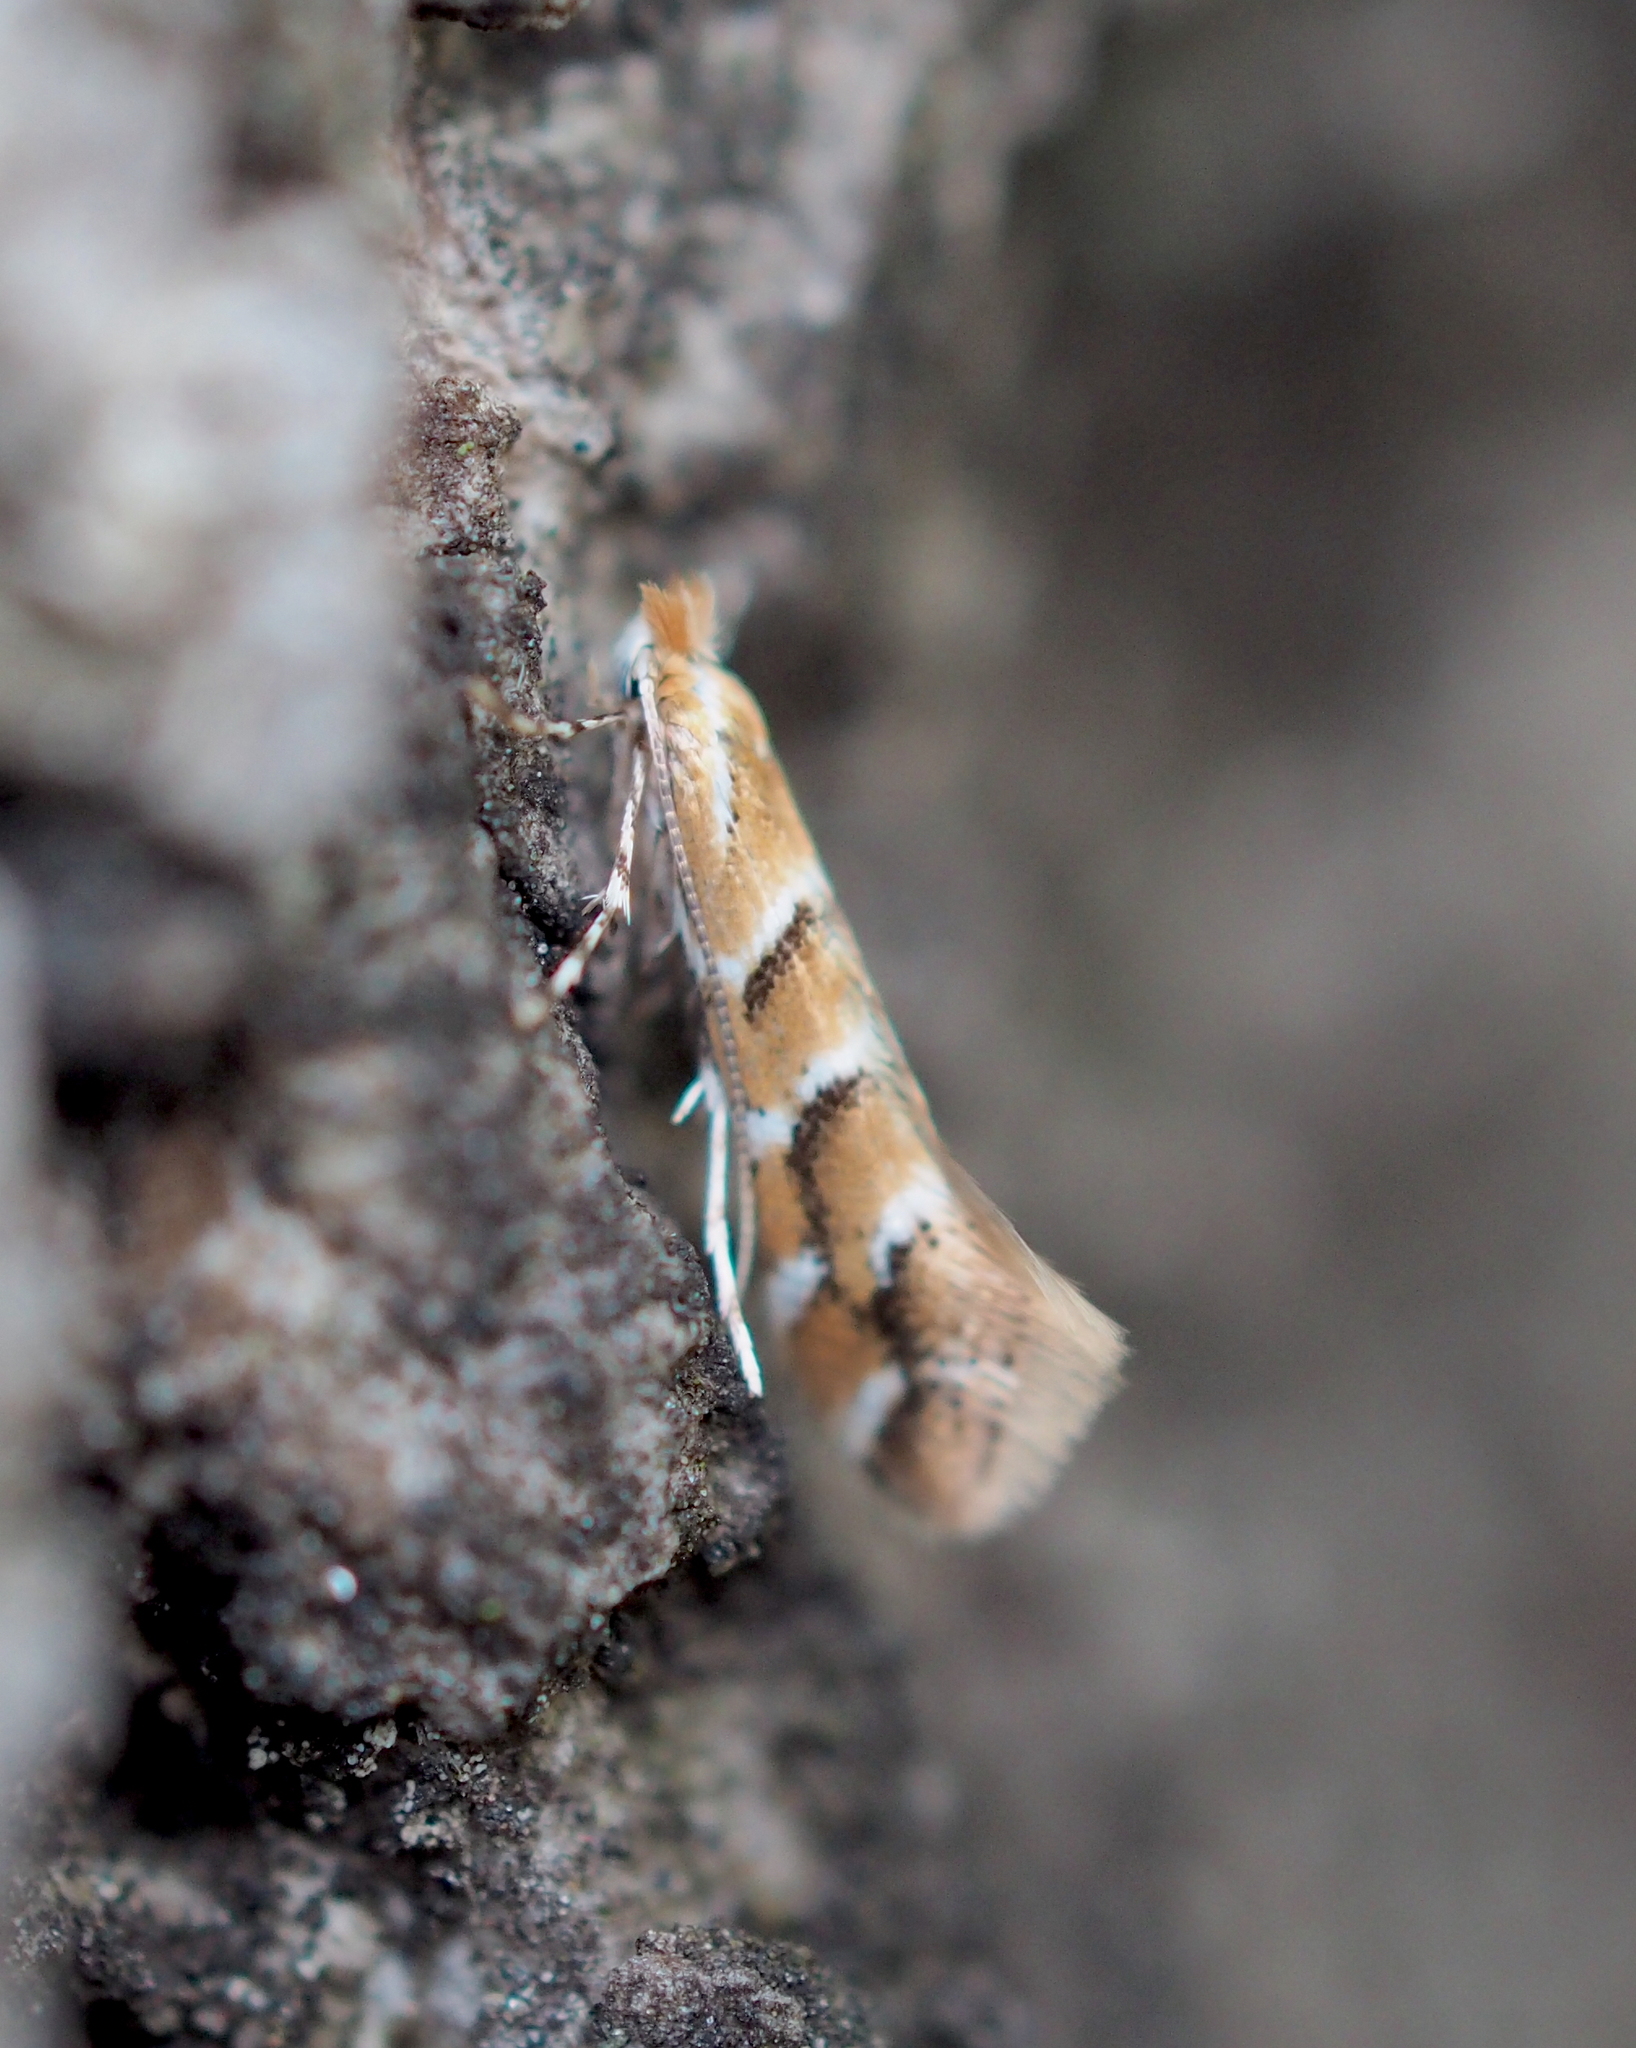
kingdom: Animalia
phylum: Arthropoda
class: Insecta
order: Lepidoptera
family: Gracillariidae
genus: Cameraria
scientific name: Cameraria ohridella
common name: Horse-chestnut leaf-miner
